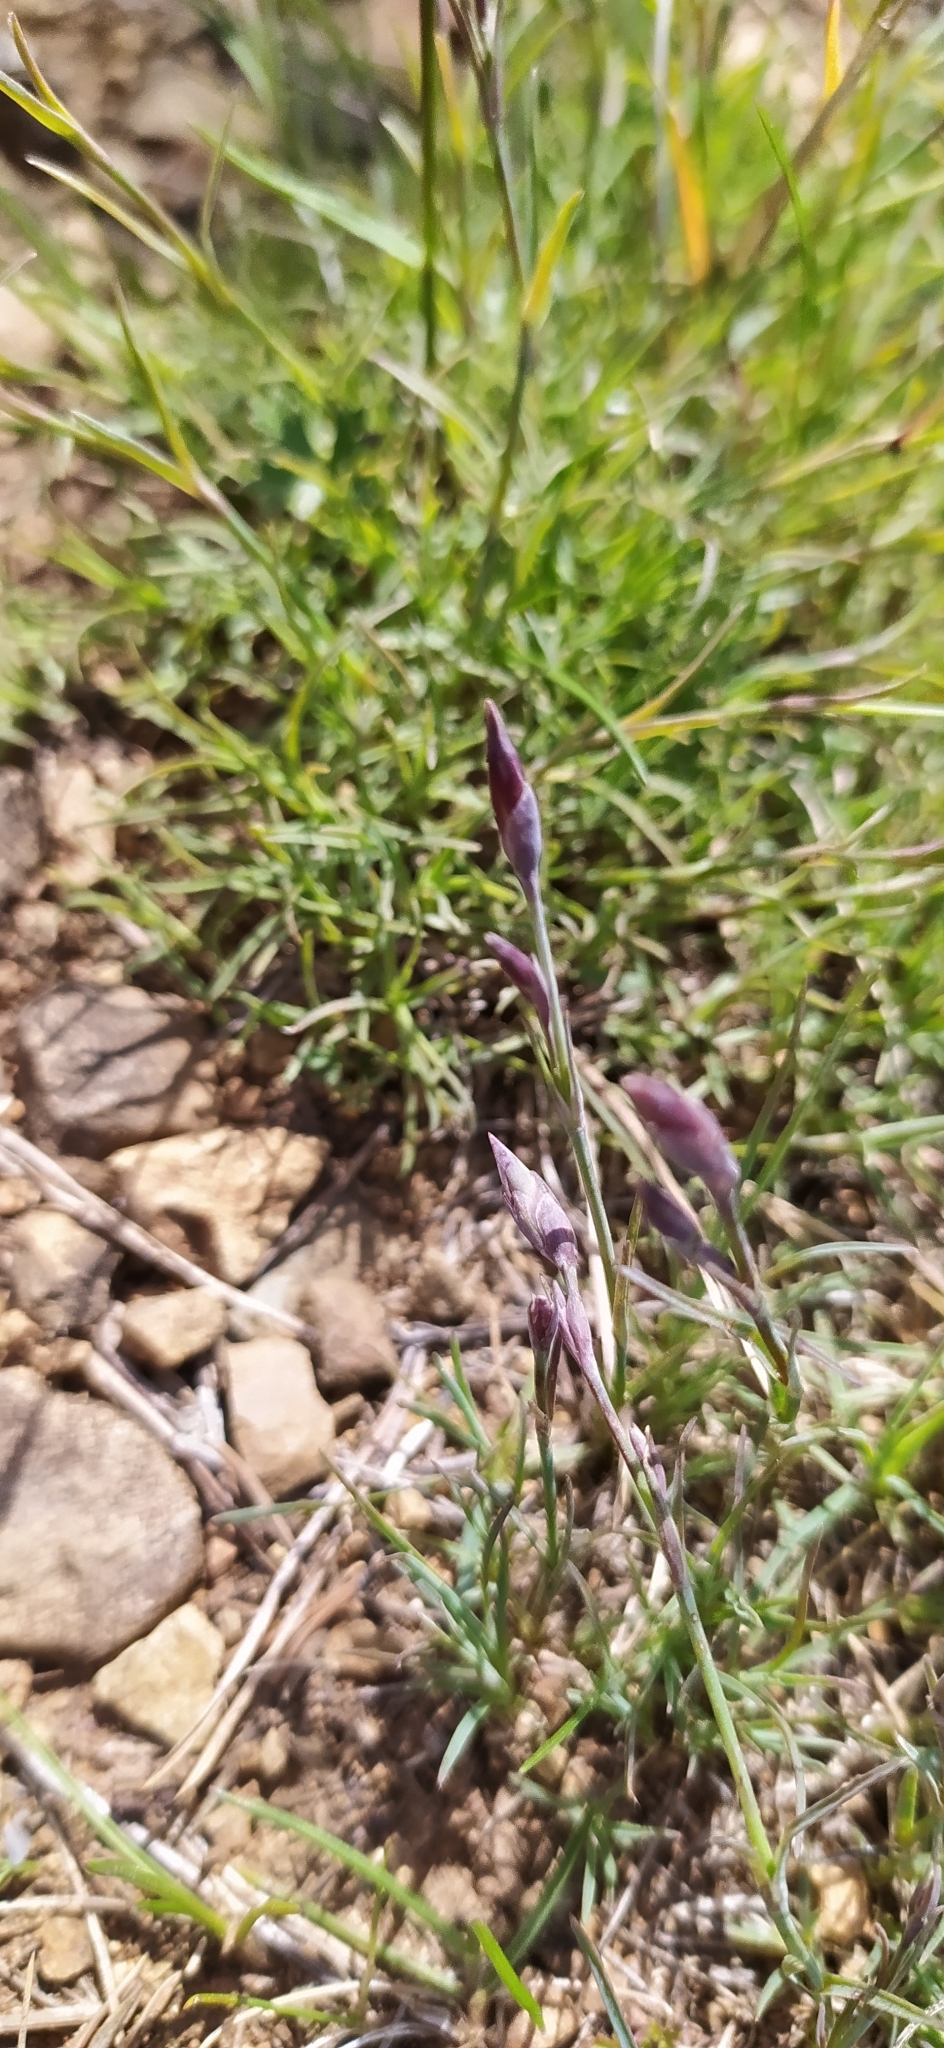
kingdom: Plantae
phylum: Tracheophyta
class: Magnoliopsida
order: Caryophyllales
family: Caryophyllaceae
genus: Dianthus
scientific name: Dianthus acicularis
